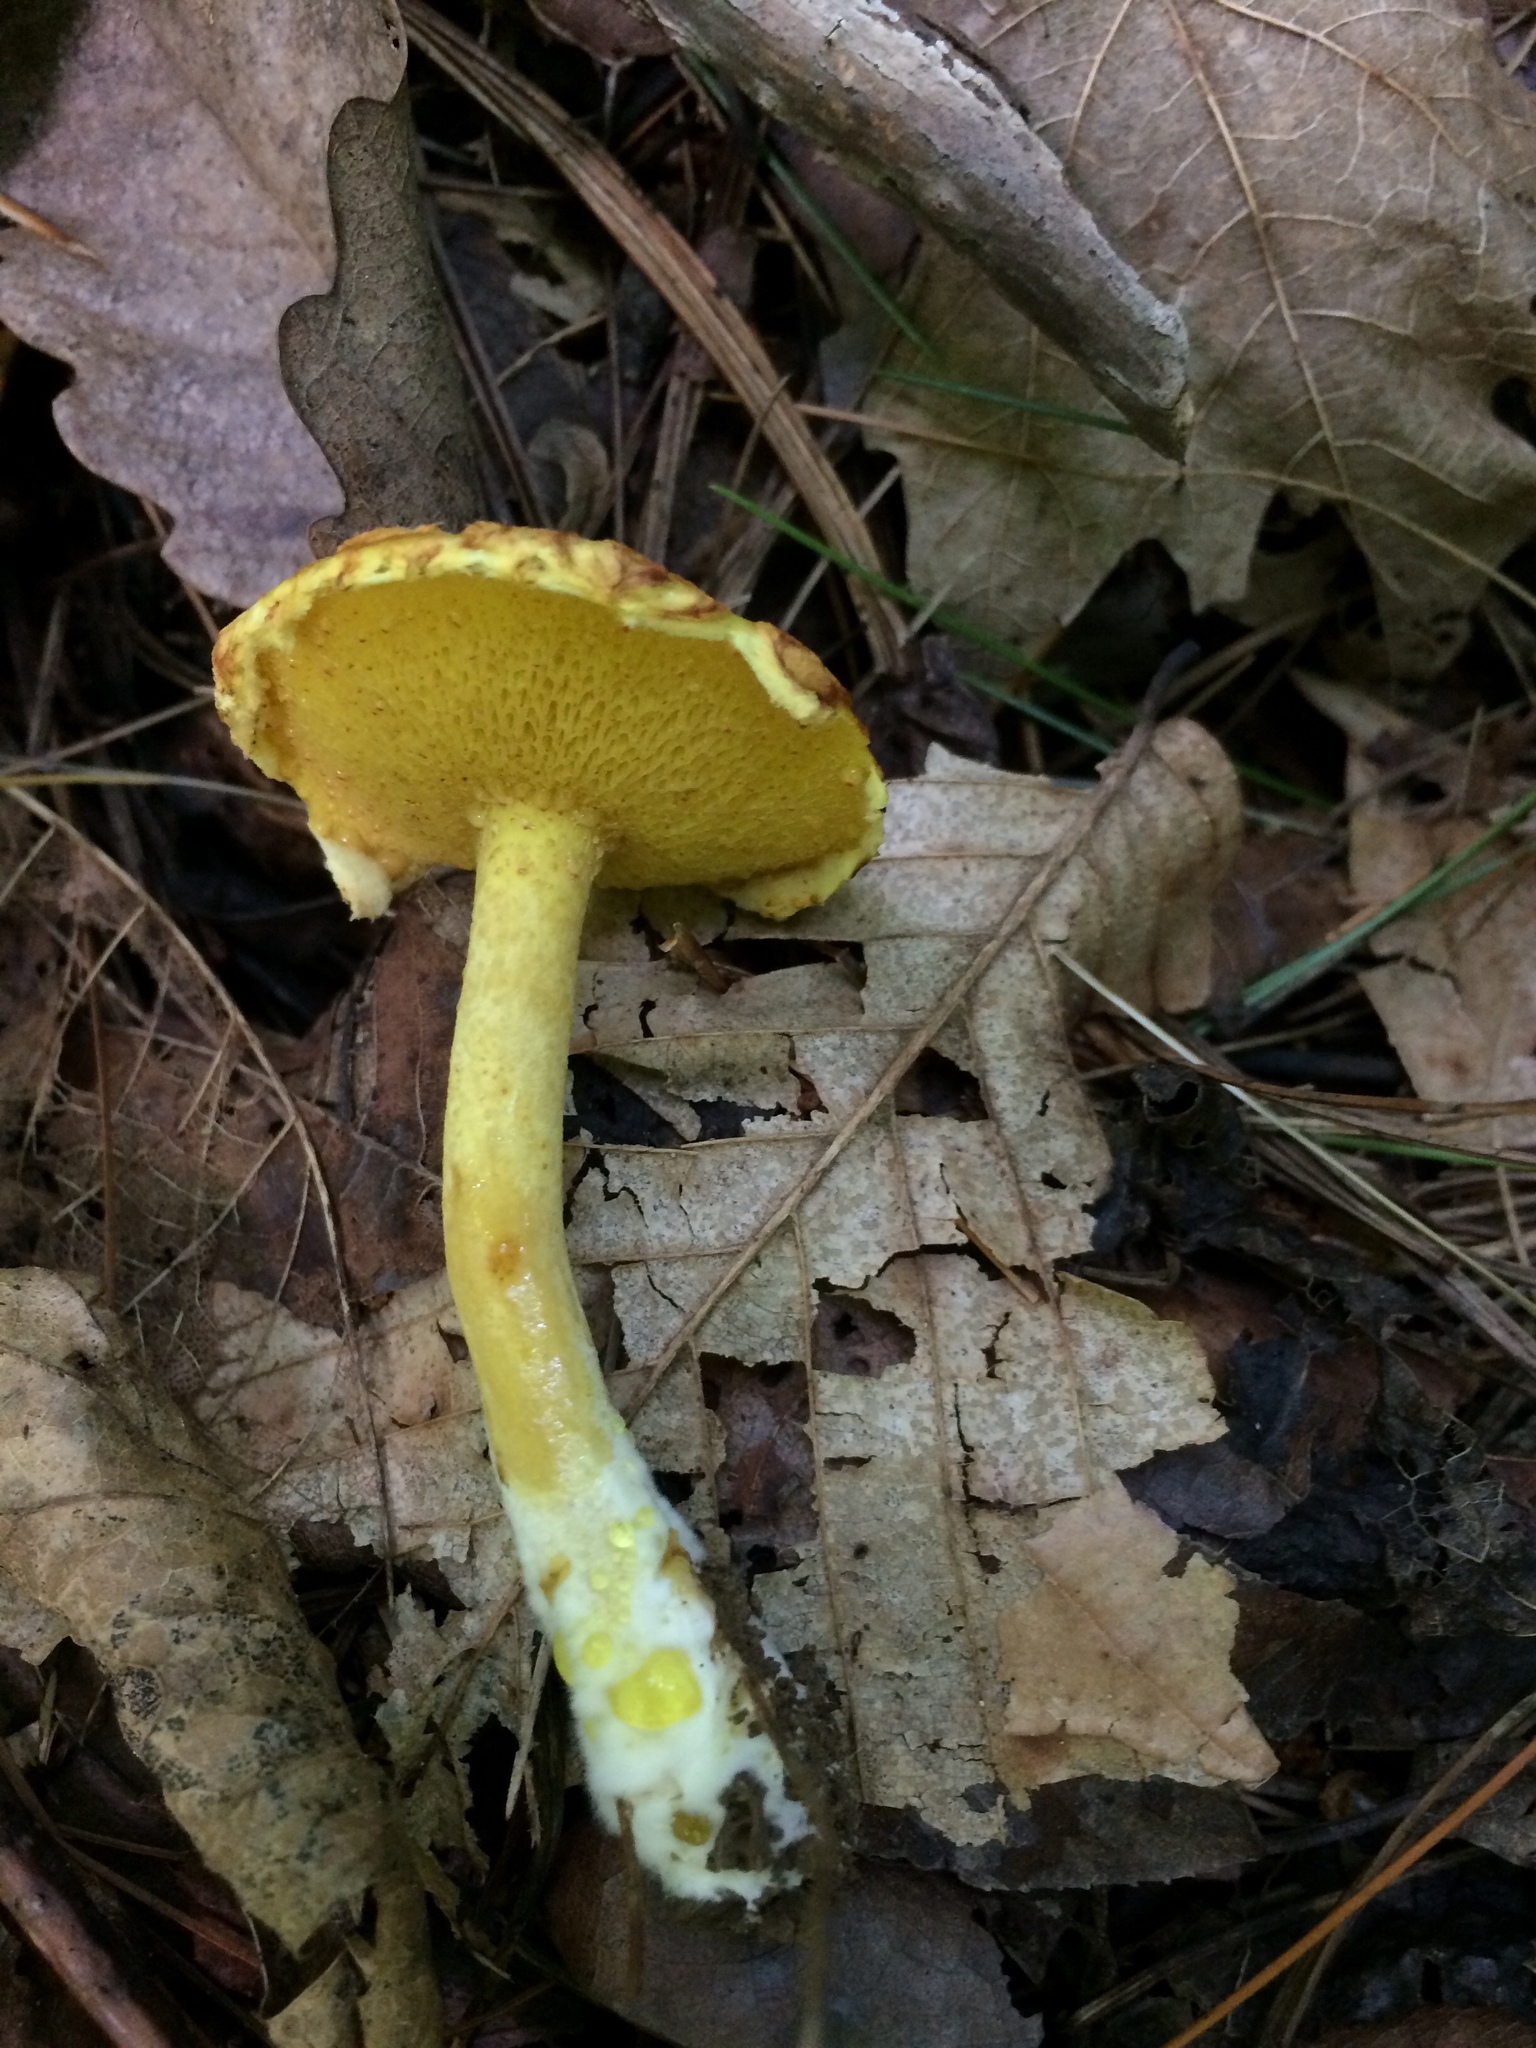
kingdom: Fungi
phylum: Basidiomycota
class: Agaricomycetes
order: Boletales
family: Suillaceae
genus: Suillus
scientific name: Suillus americanus
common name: Chicken fat mushroom
